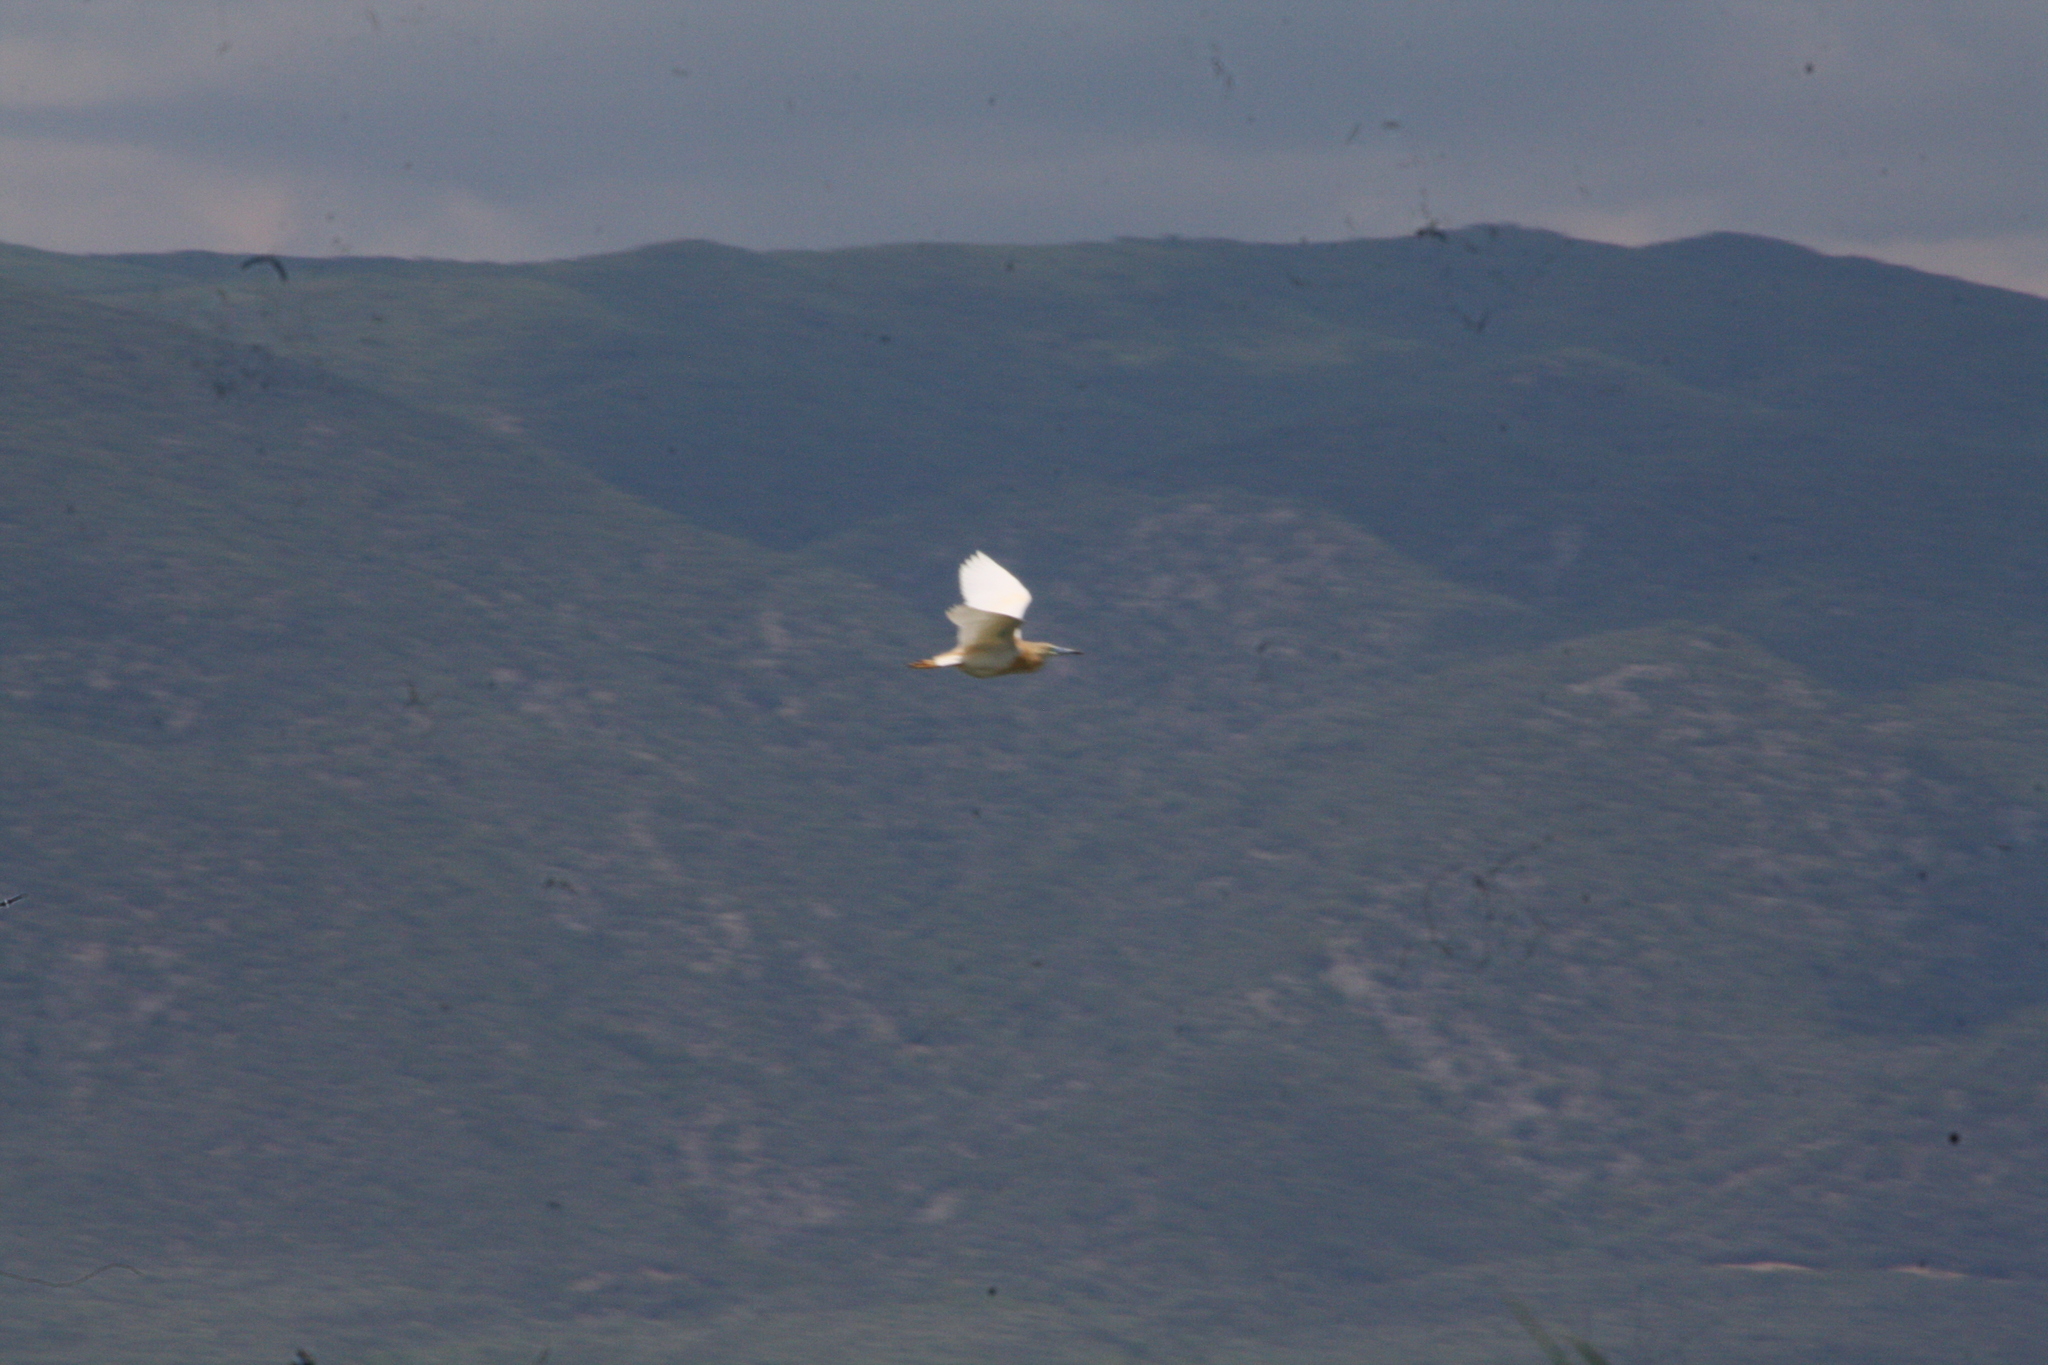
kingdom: Animalia
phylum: Chordata
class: Aves
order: Pelecaniformes
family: Ardeidae
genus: Ardeola
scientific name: Ardeola ralloides
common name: Squacco heron
